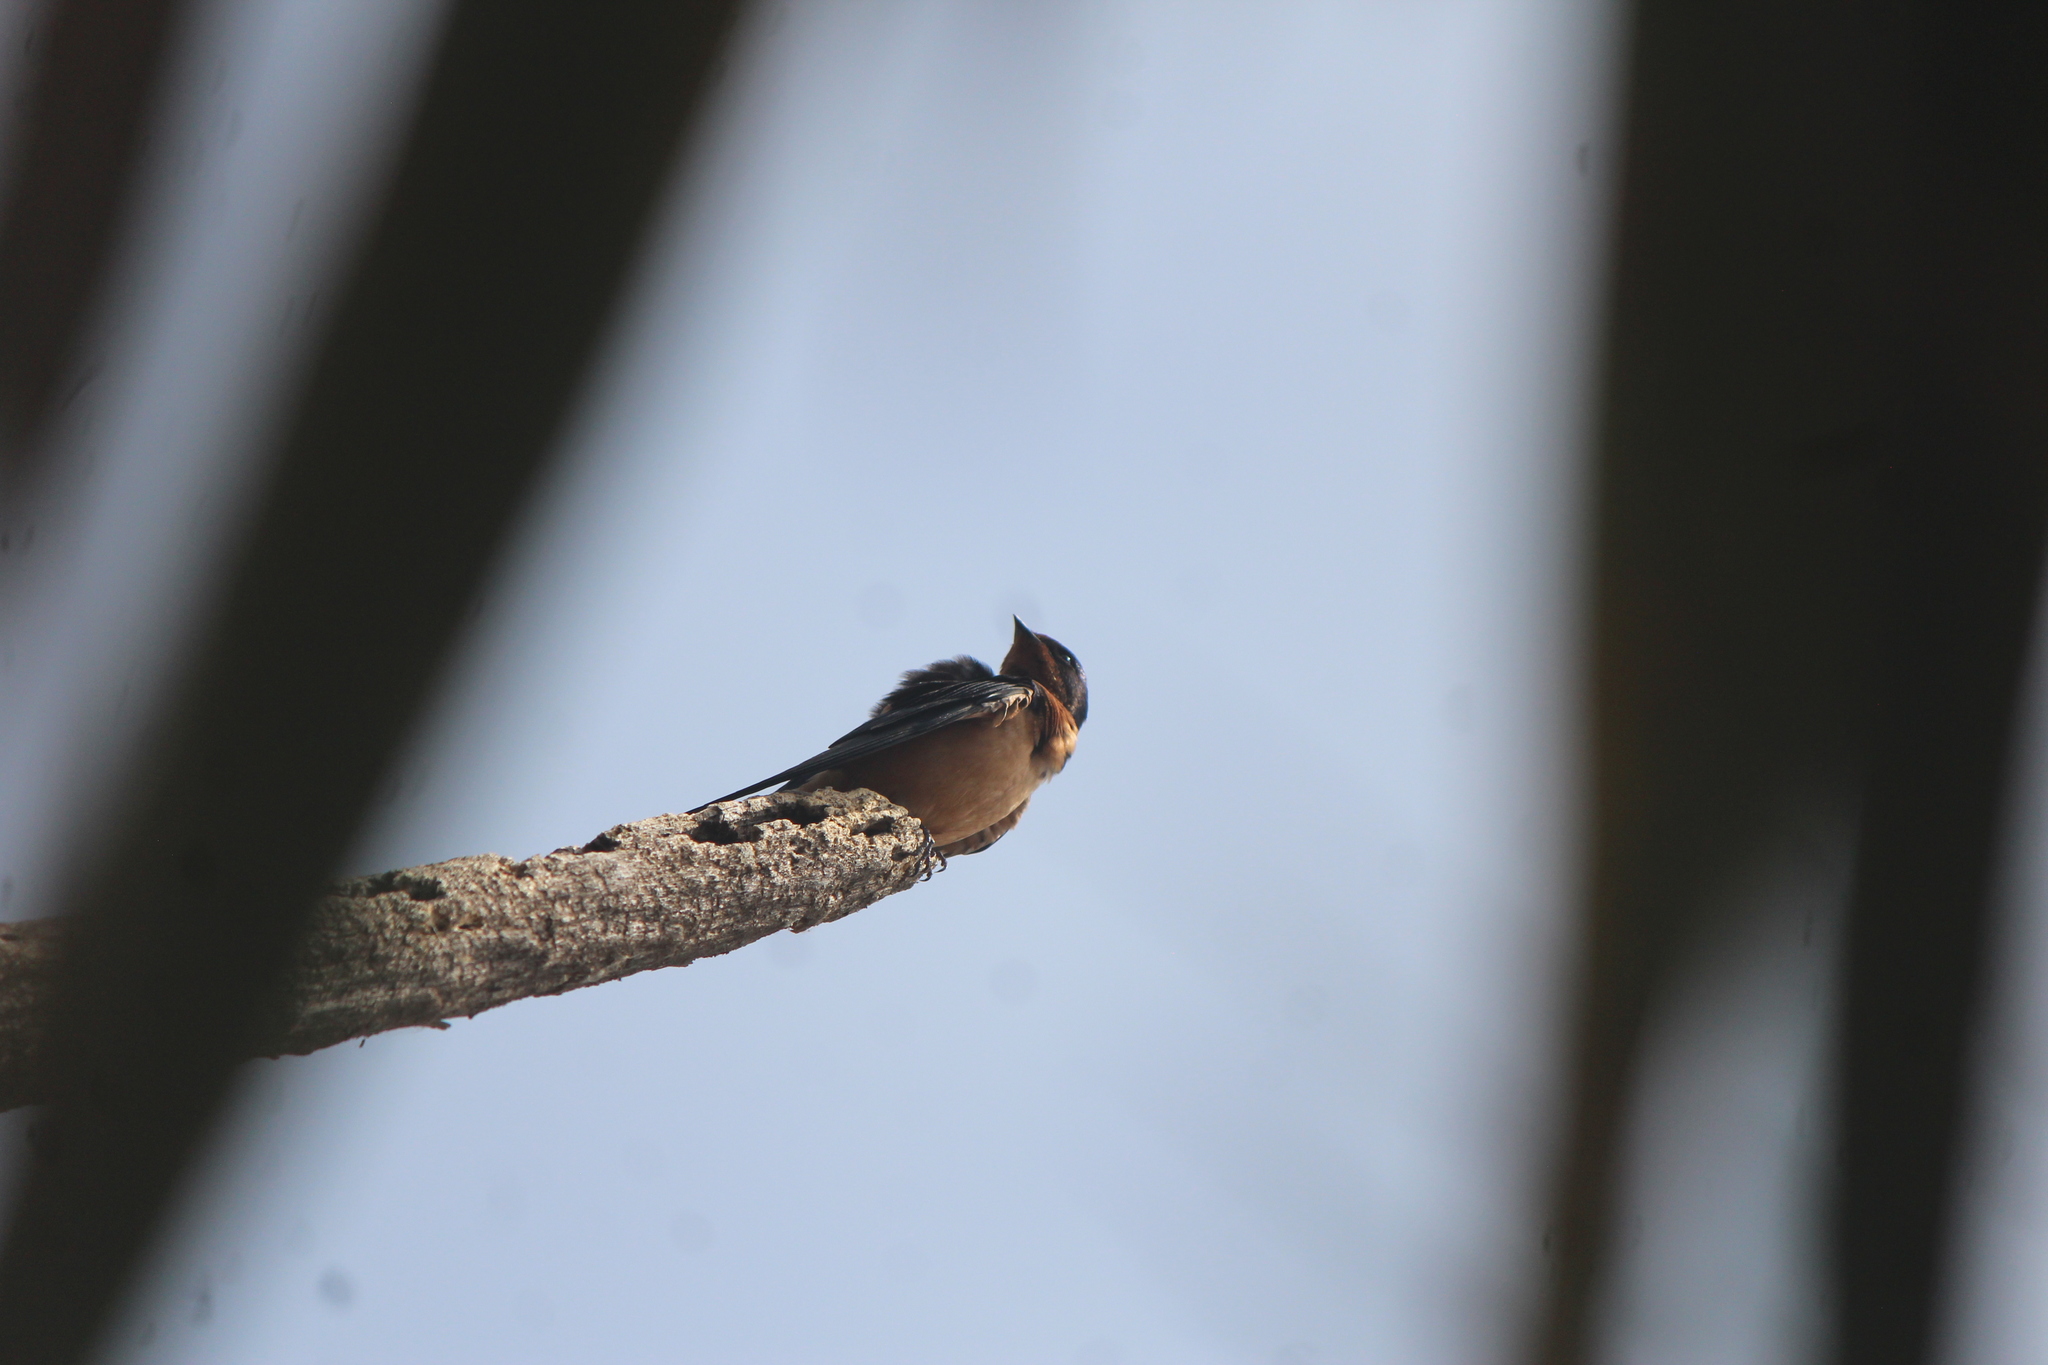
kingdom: Animalia
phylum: Chordata
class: Aves
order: Passeriformes
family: Hirundinidae
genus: Hirundo
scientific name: Hirundo rustica
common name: Barn swallow
